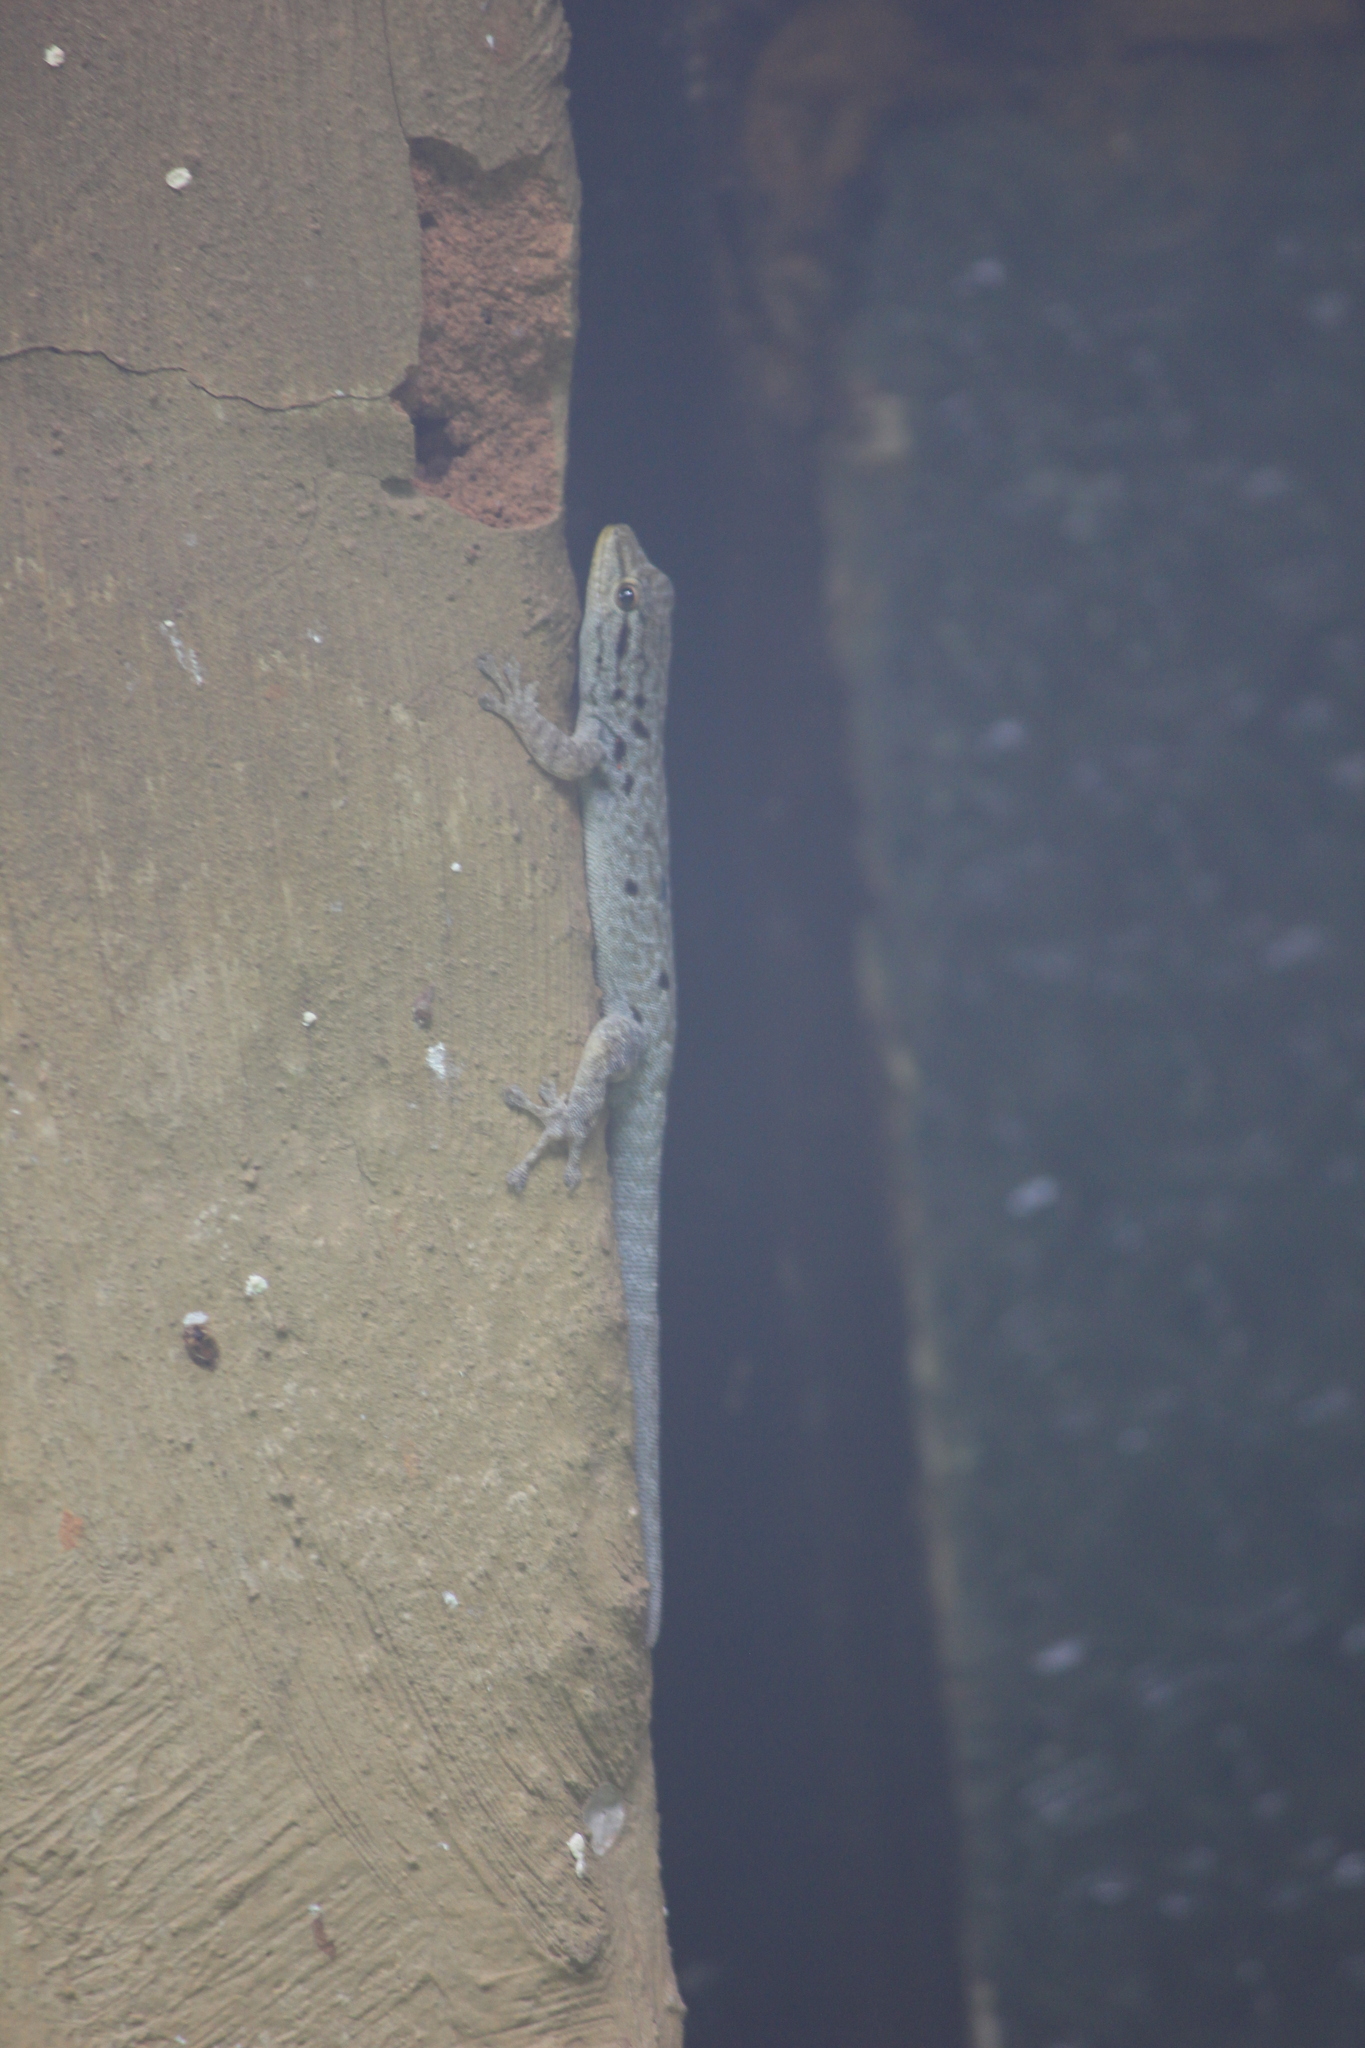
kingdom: Animalia
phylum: Chordata
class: Squamata
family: Gekkonidae
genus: Lygodactylus
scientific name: Lygodactylus incognitus
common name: Cryptic dwarf gecko
